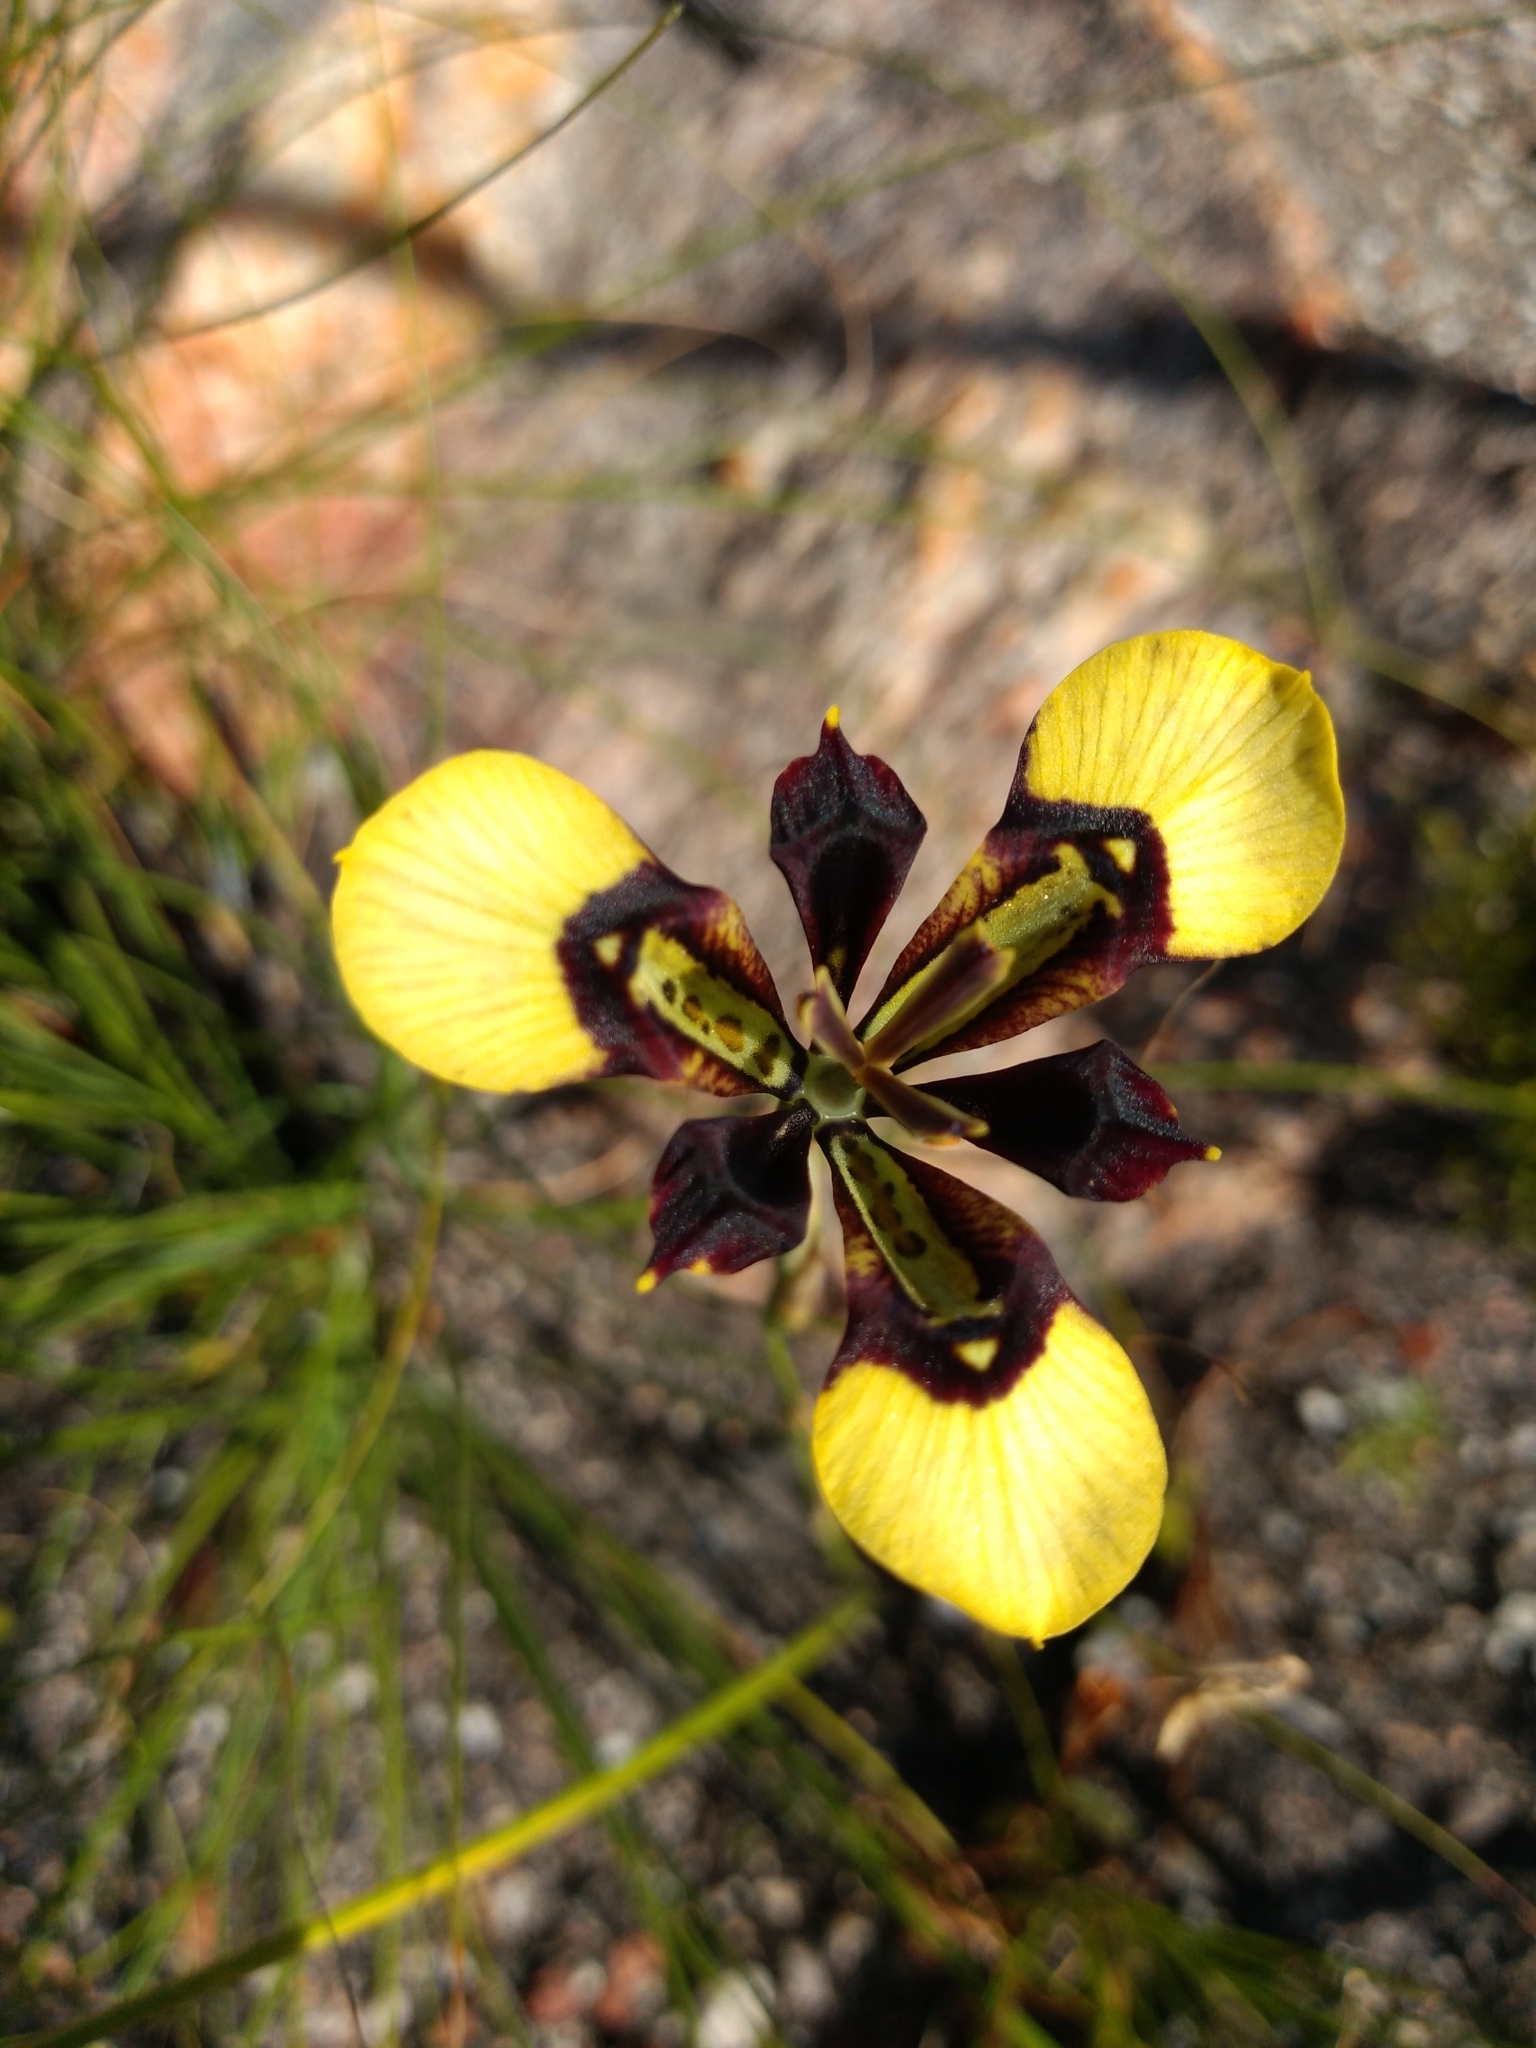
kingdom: Plantae
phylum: Tracheophyta
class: Liliopsida
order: Asparagales
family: Iridaceae
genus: Moraea
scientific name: Moraea lurida
